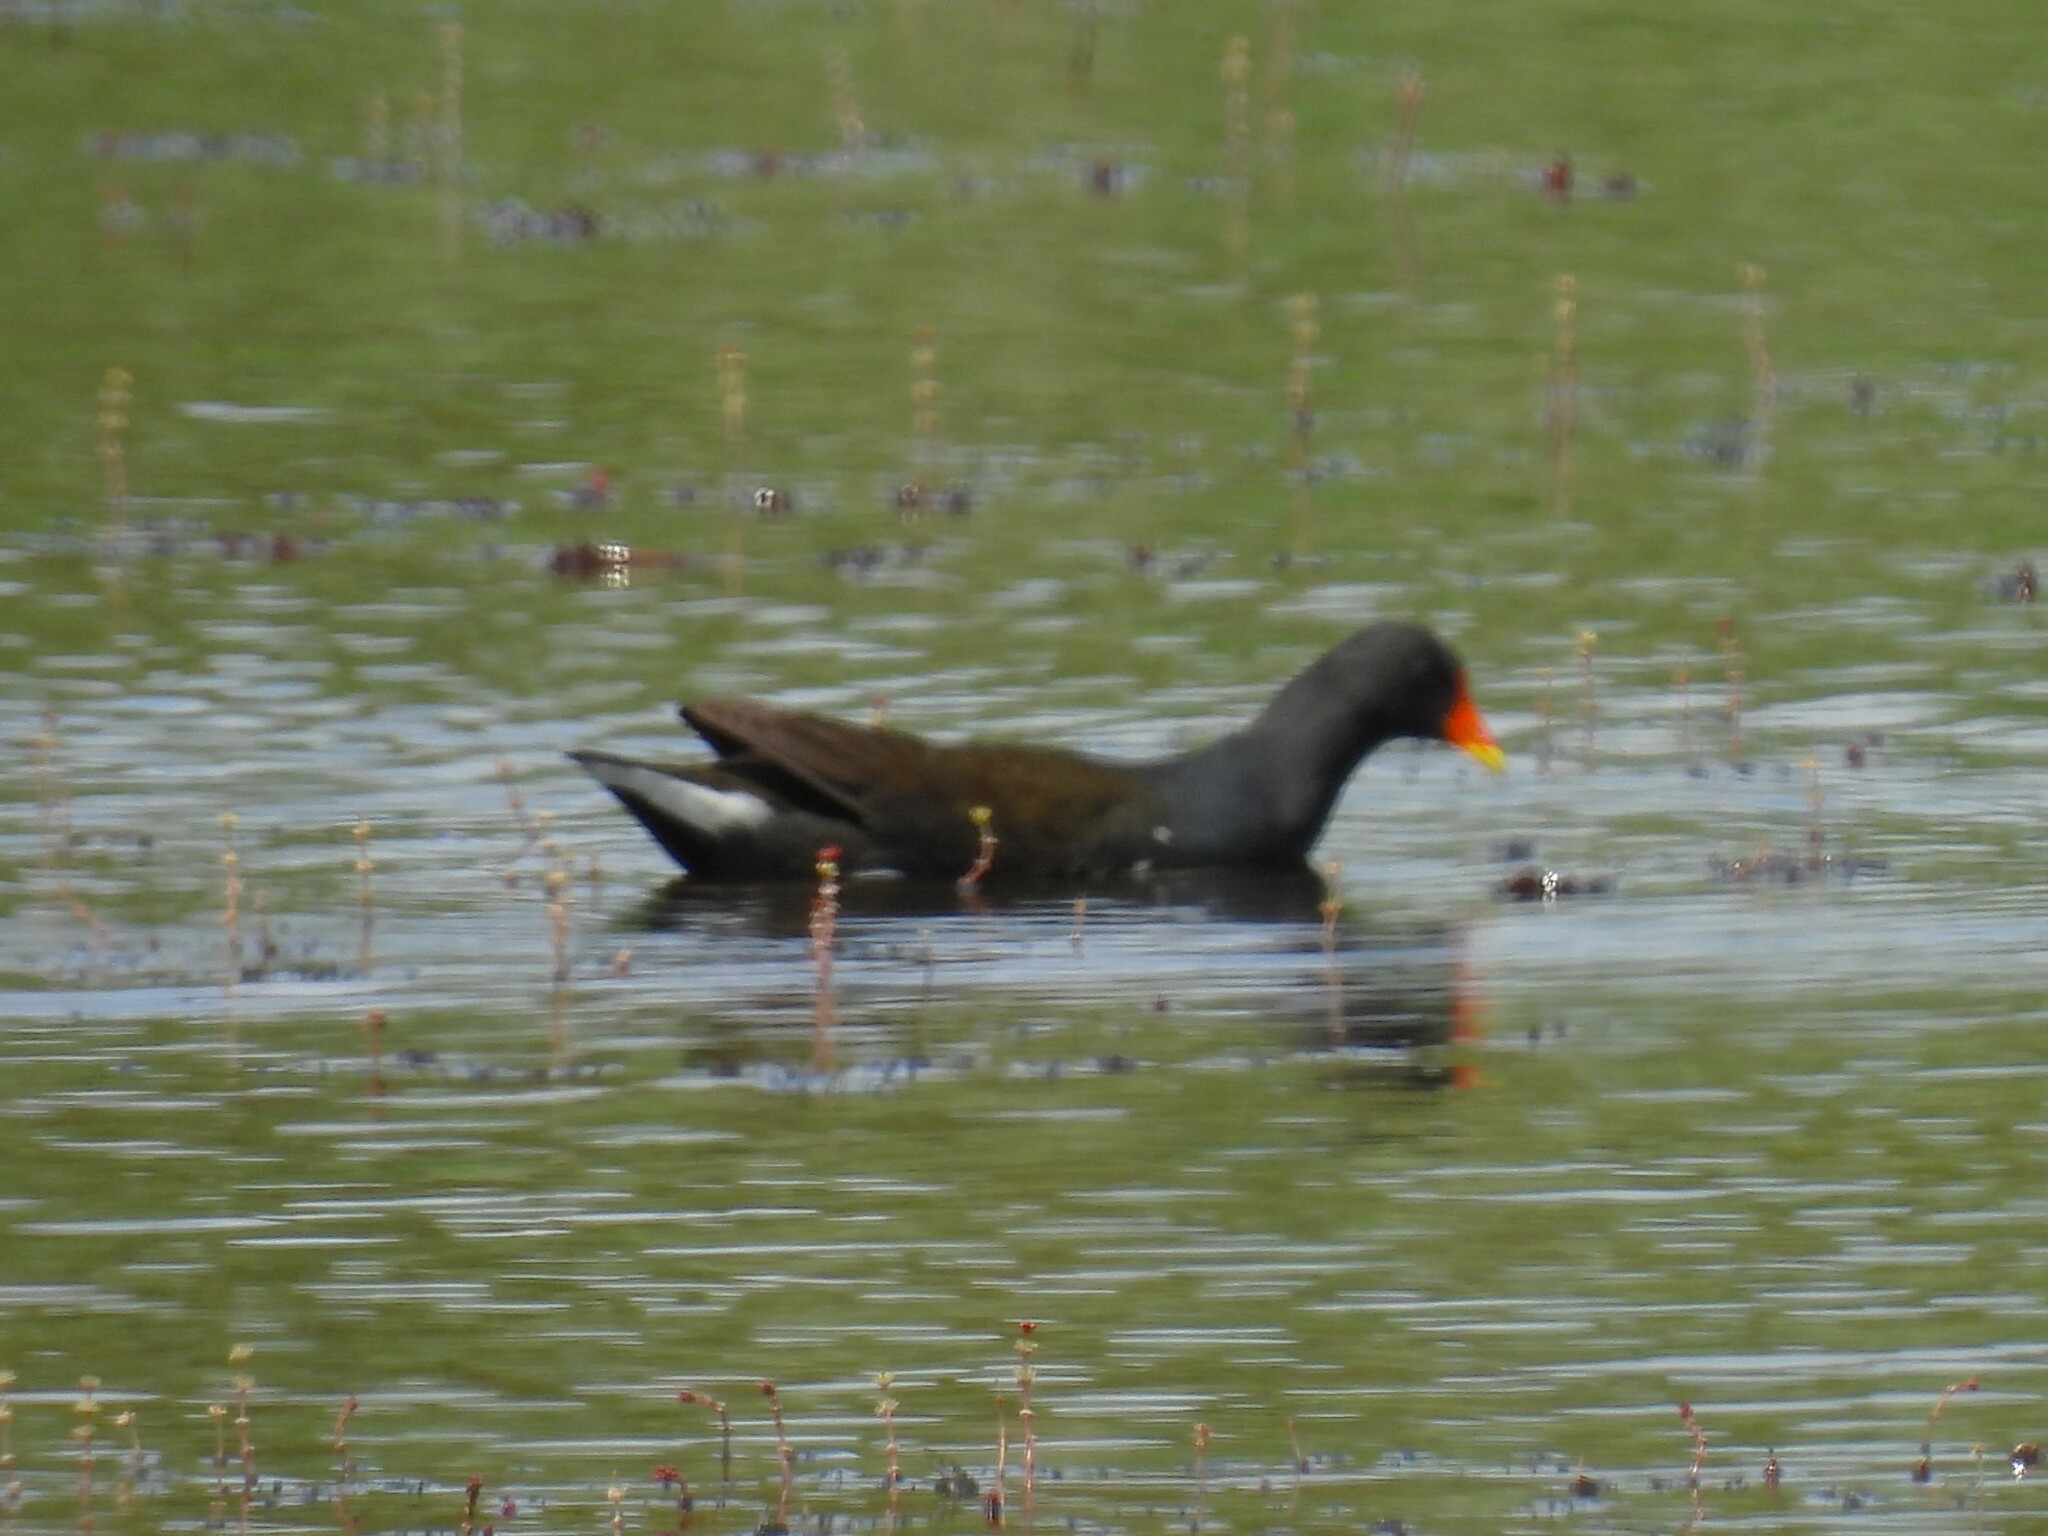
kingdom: Animalia
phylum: Chordata
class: Aves
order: Gruiformes
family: Rallidae
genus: Gallinula
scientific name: Gallinula chloropus
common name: Common moorhen
